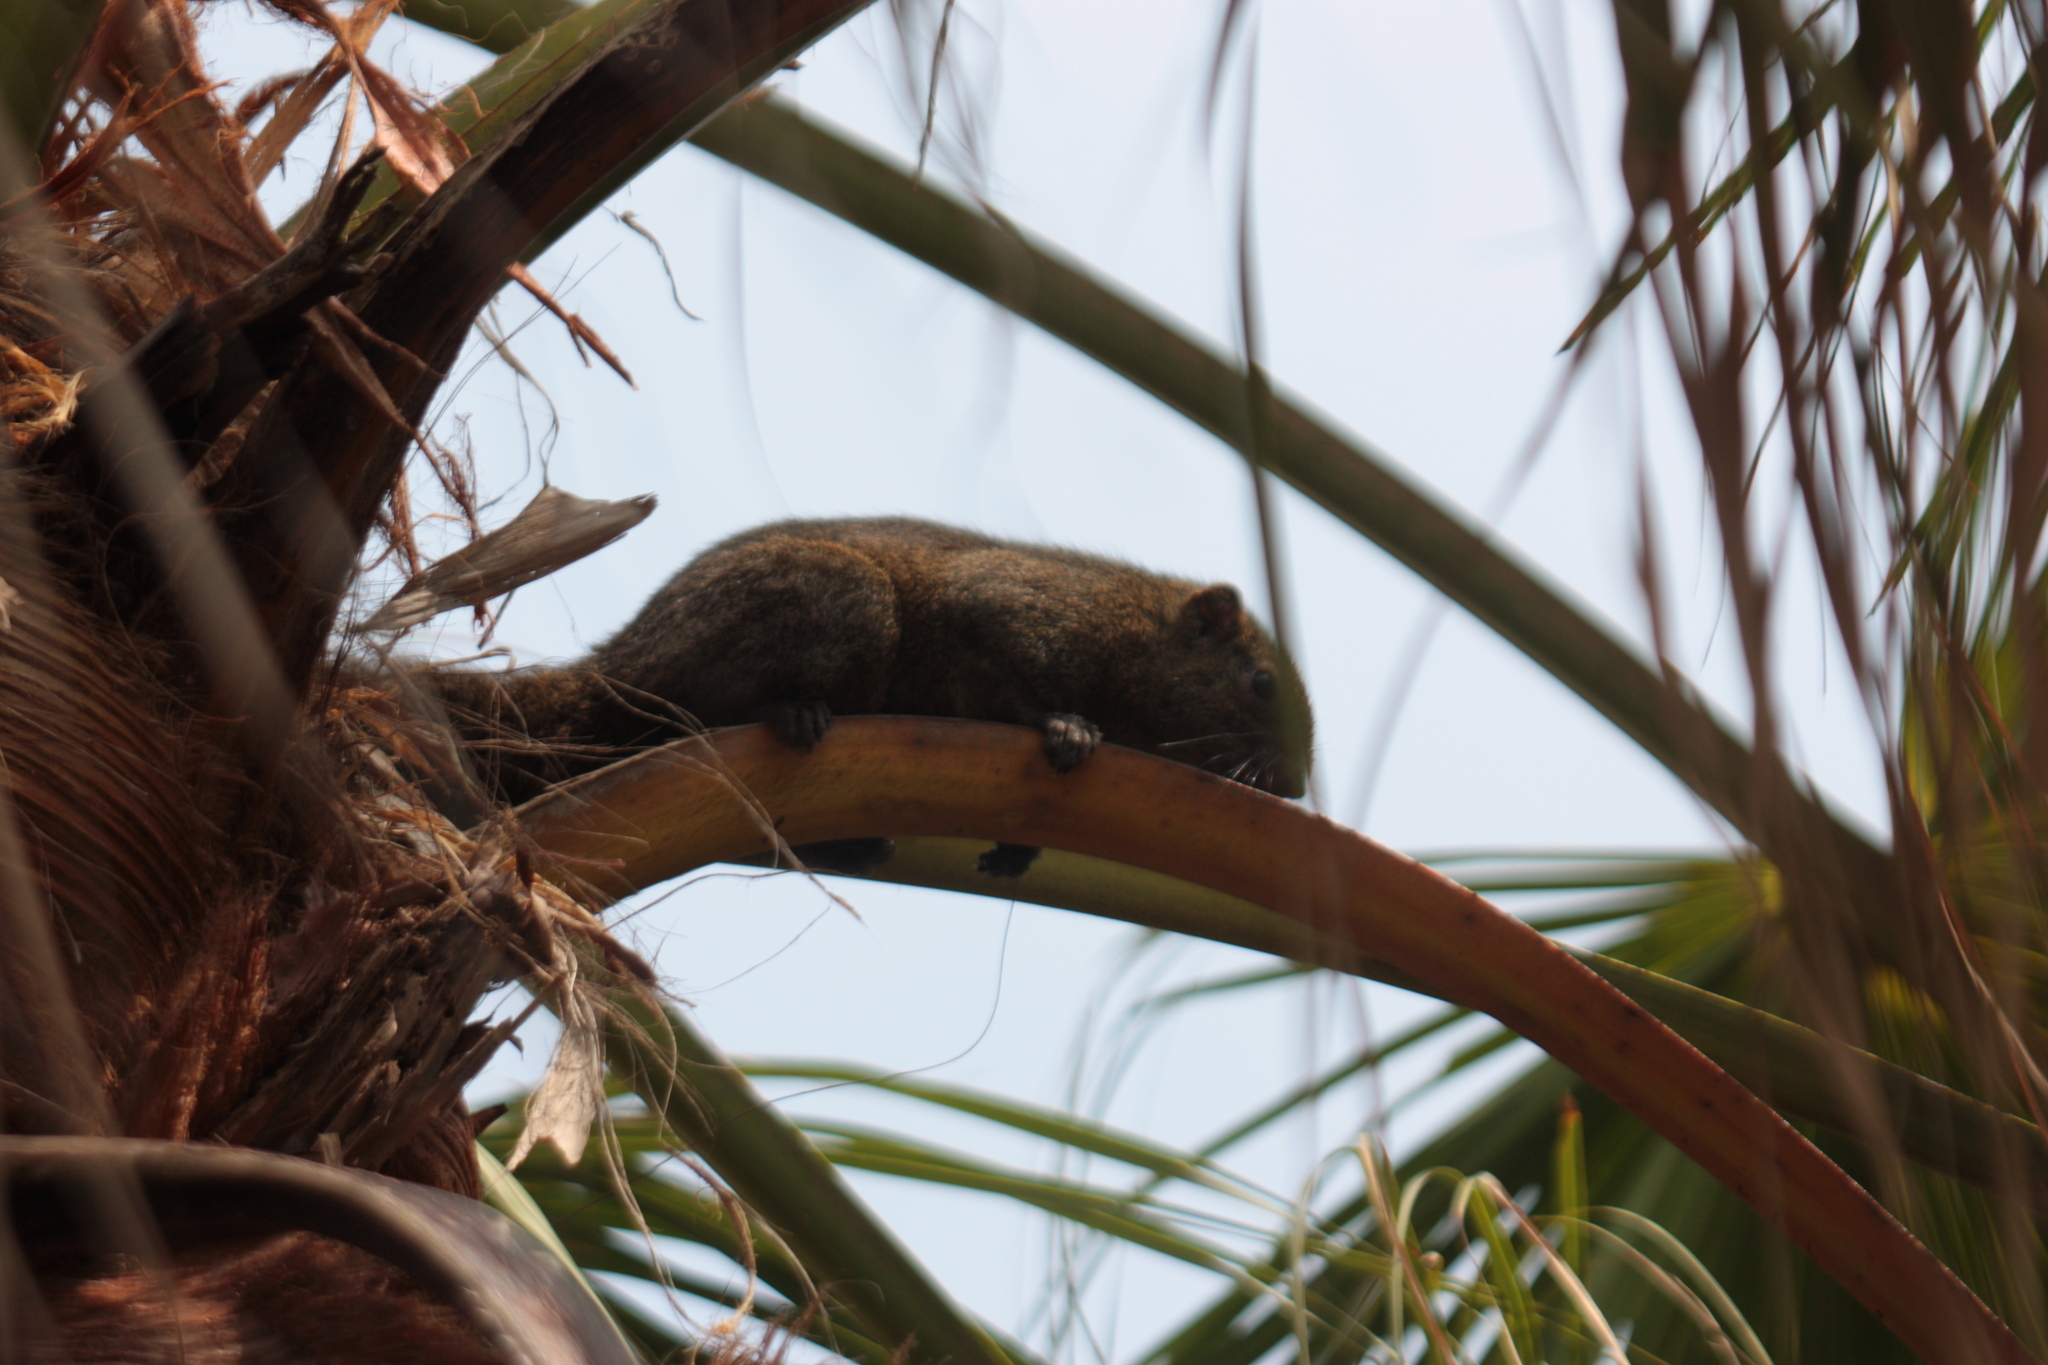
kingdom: Animalia
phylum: Chordata
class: Mammalia
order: Rodentia
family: Sciuridae
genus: Callosciurus
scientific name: Callosciurus erythraeus
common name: Pallas's squirrel
